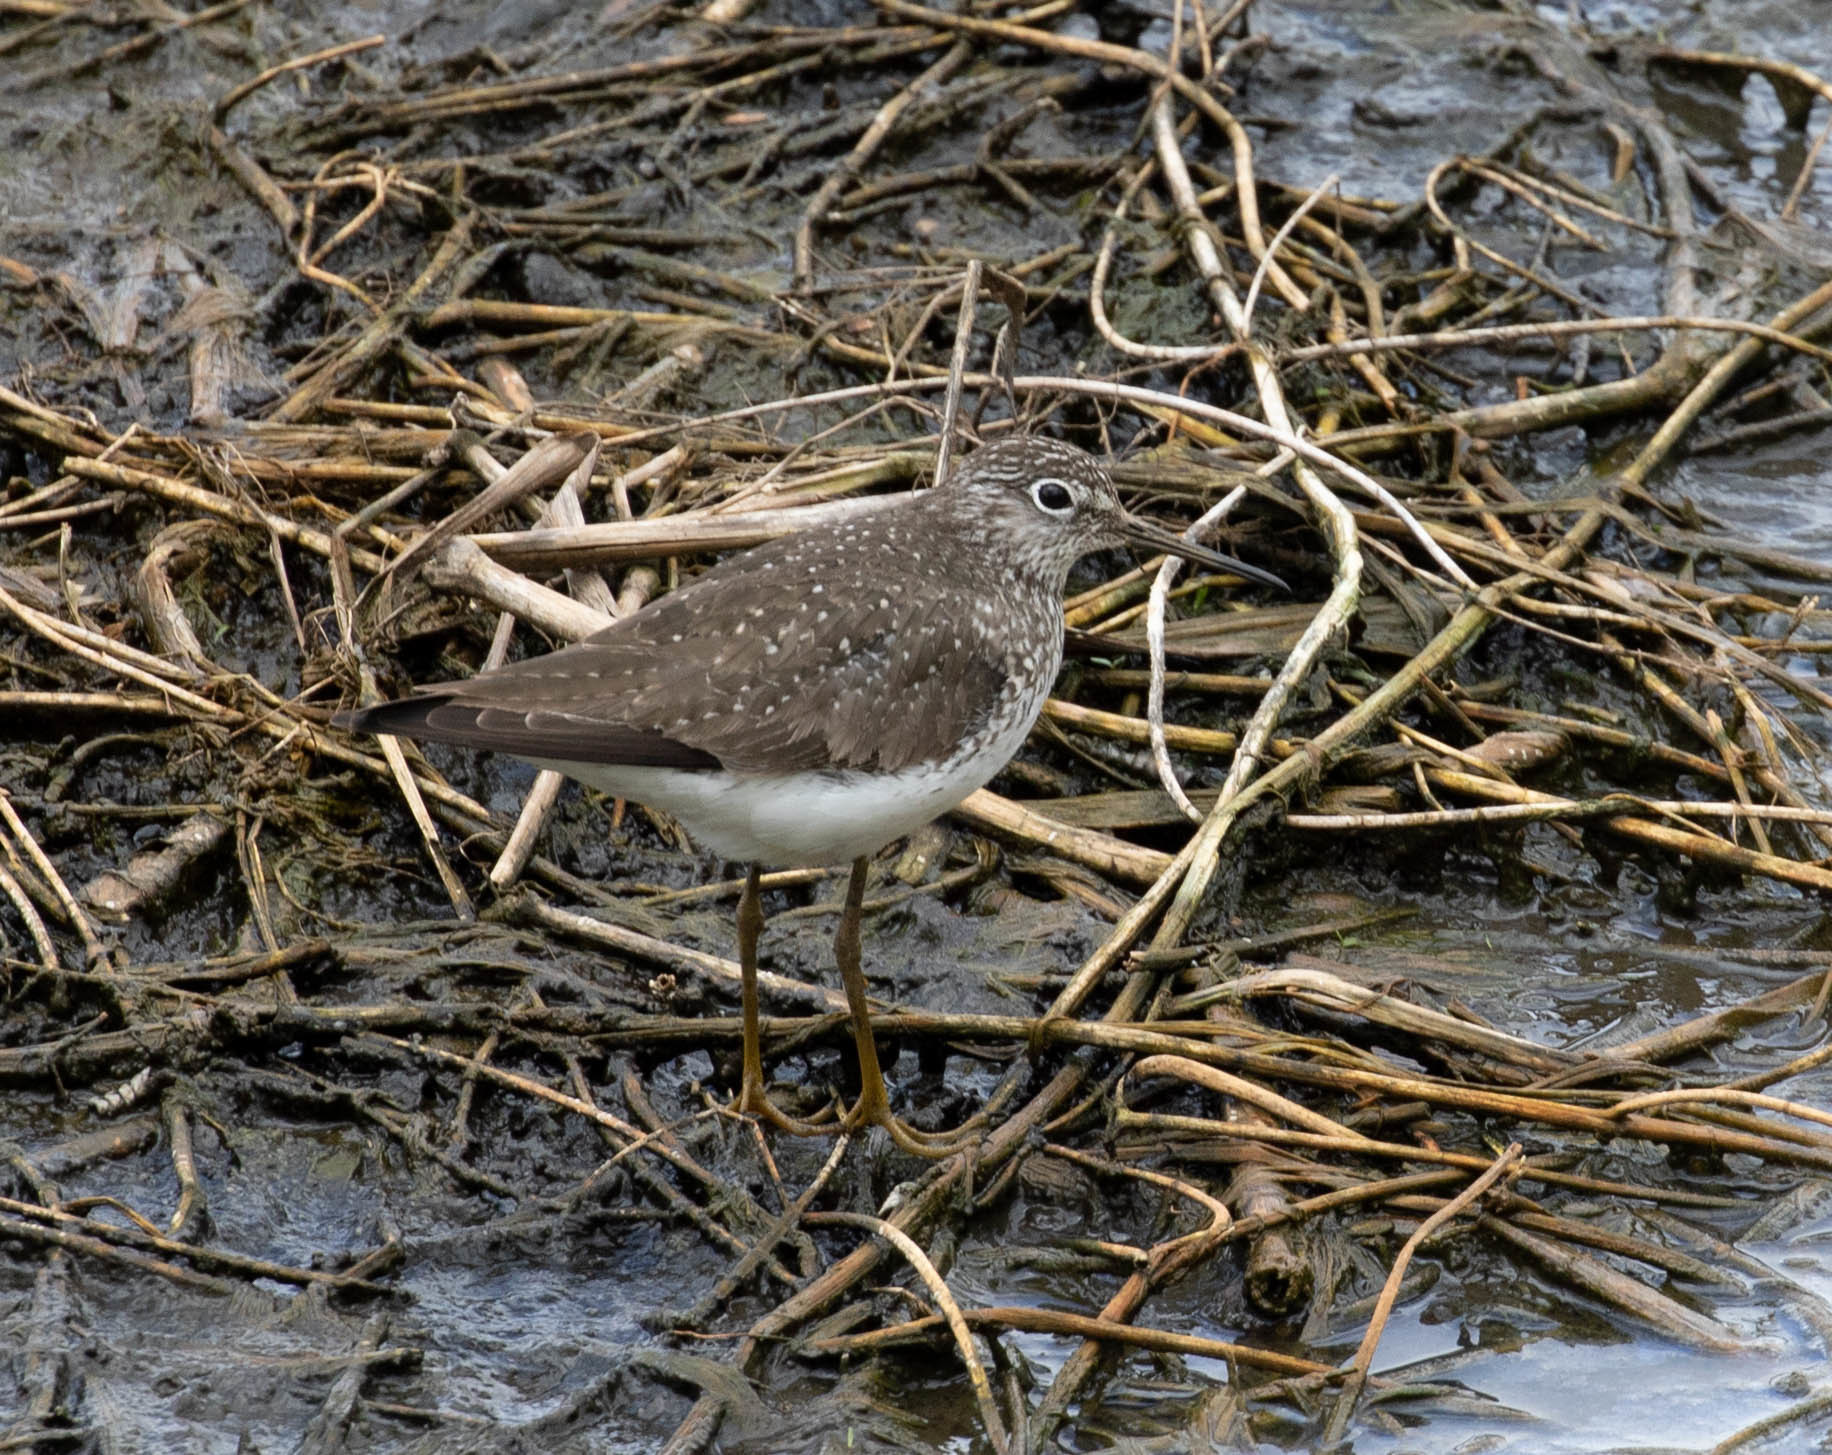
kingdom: Animalia
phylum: Chordata
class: Aves
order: Charadriiformes
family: Scolopacidae
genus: Tringa
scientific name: Tringa solitaria
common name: Solitary sandpiper
